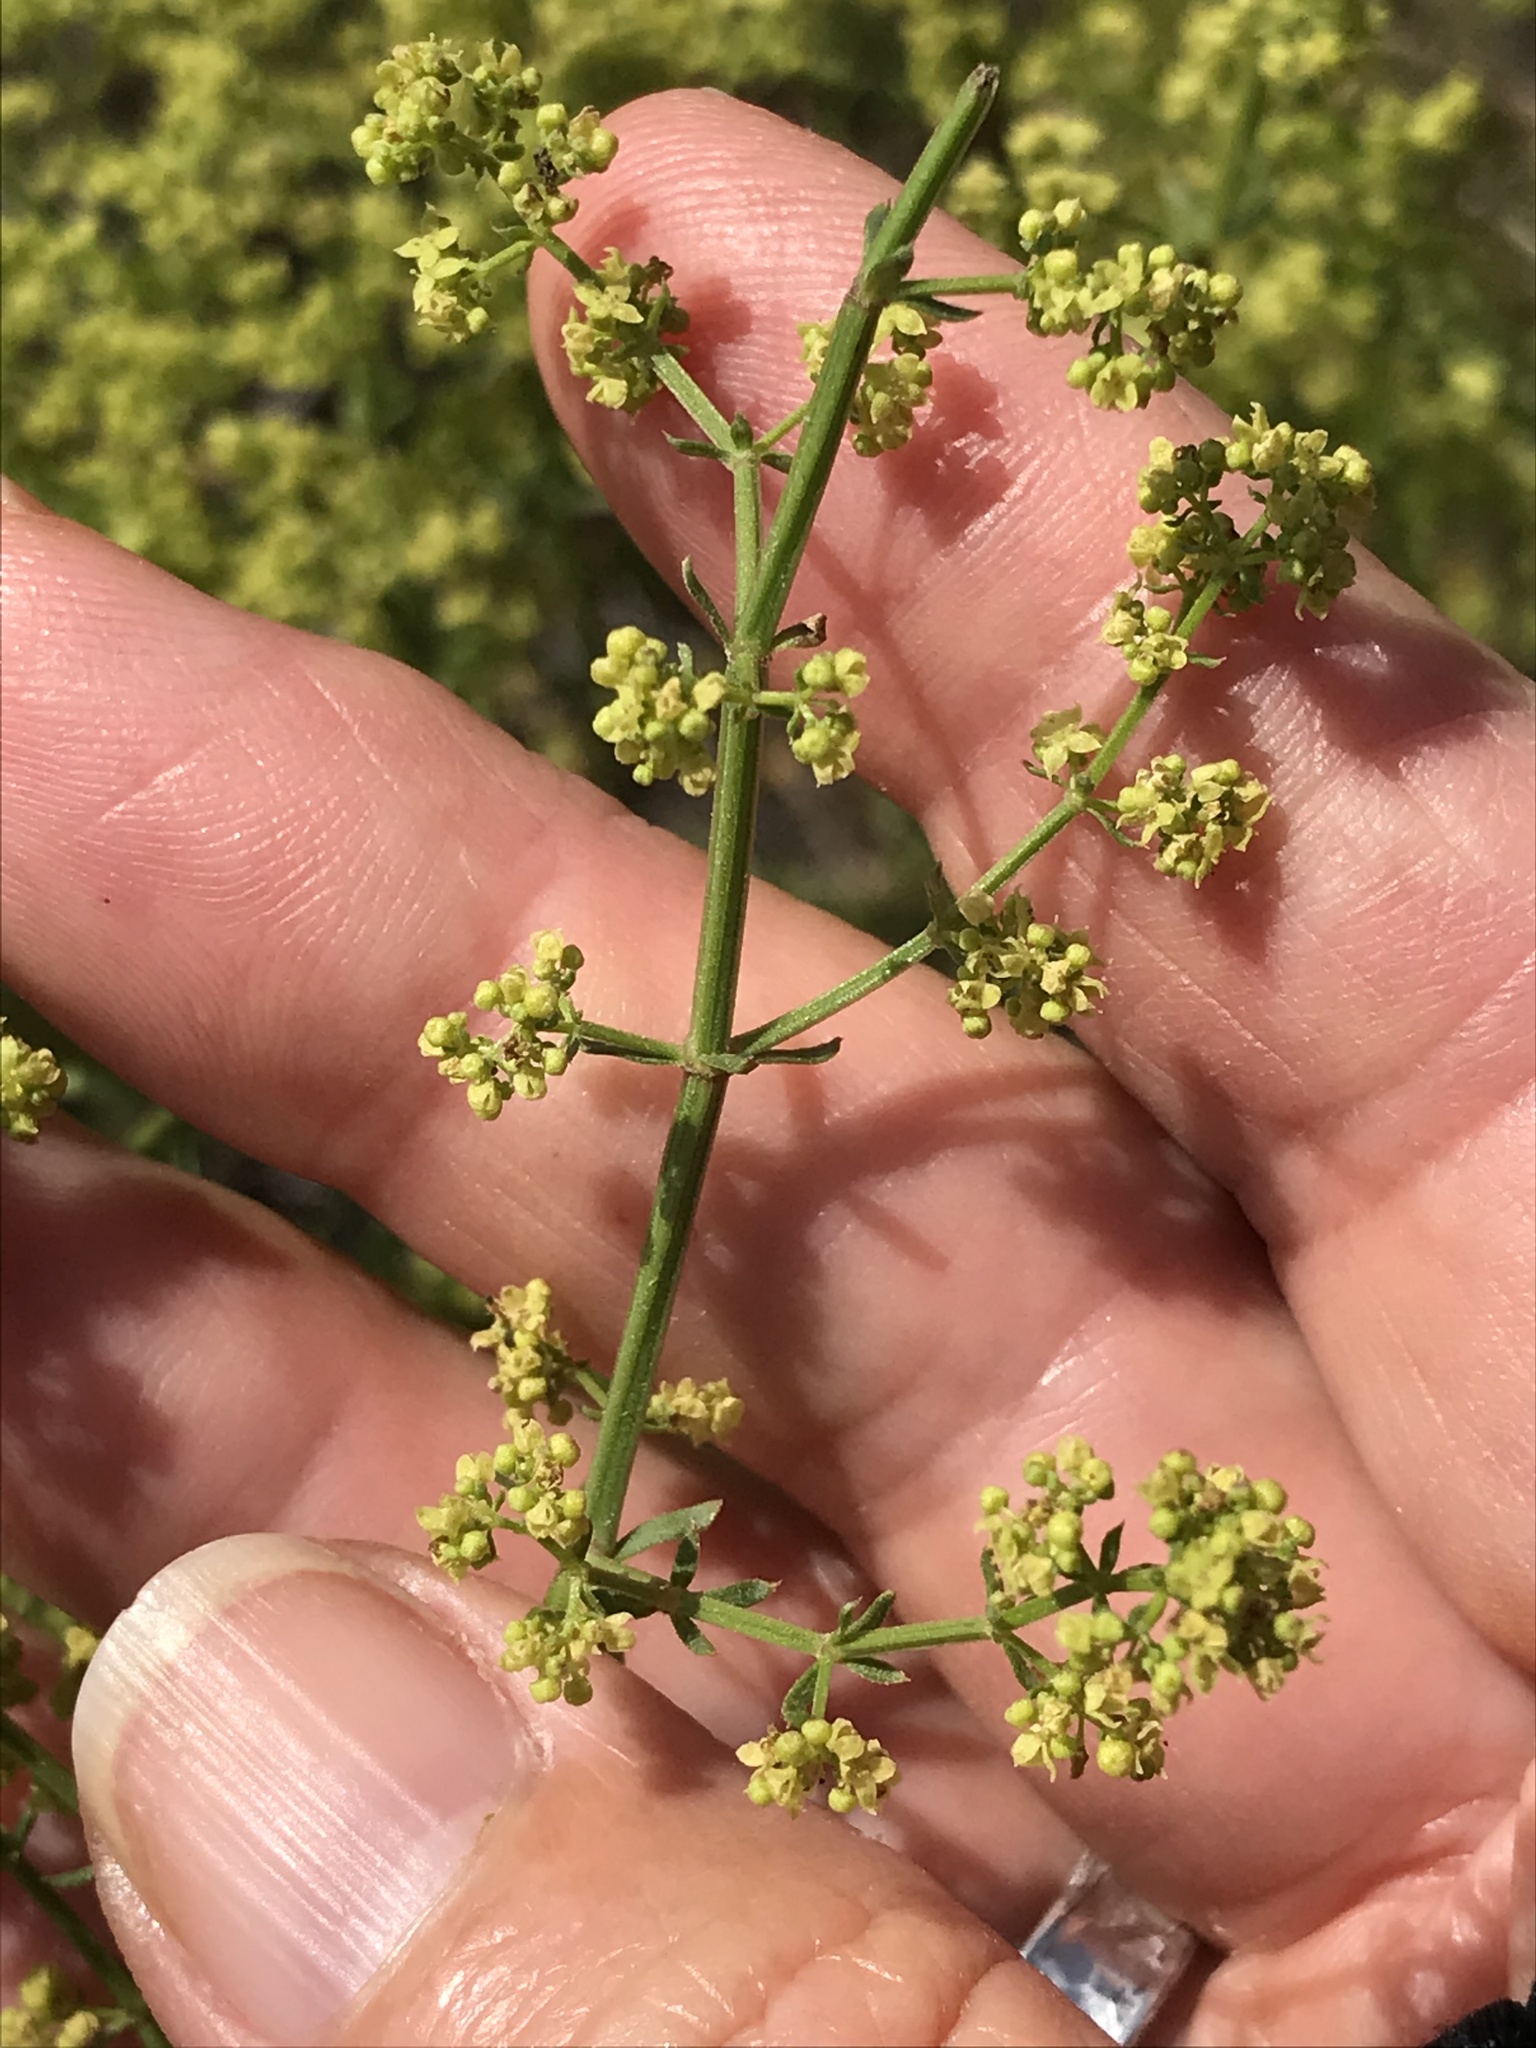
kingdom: Plantae
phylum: Tracheophyta
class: Magnoliopsida
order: Gentianales
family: Rubiaceae
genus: Galium
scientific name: Galium angustifolium
